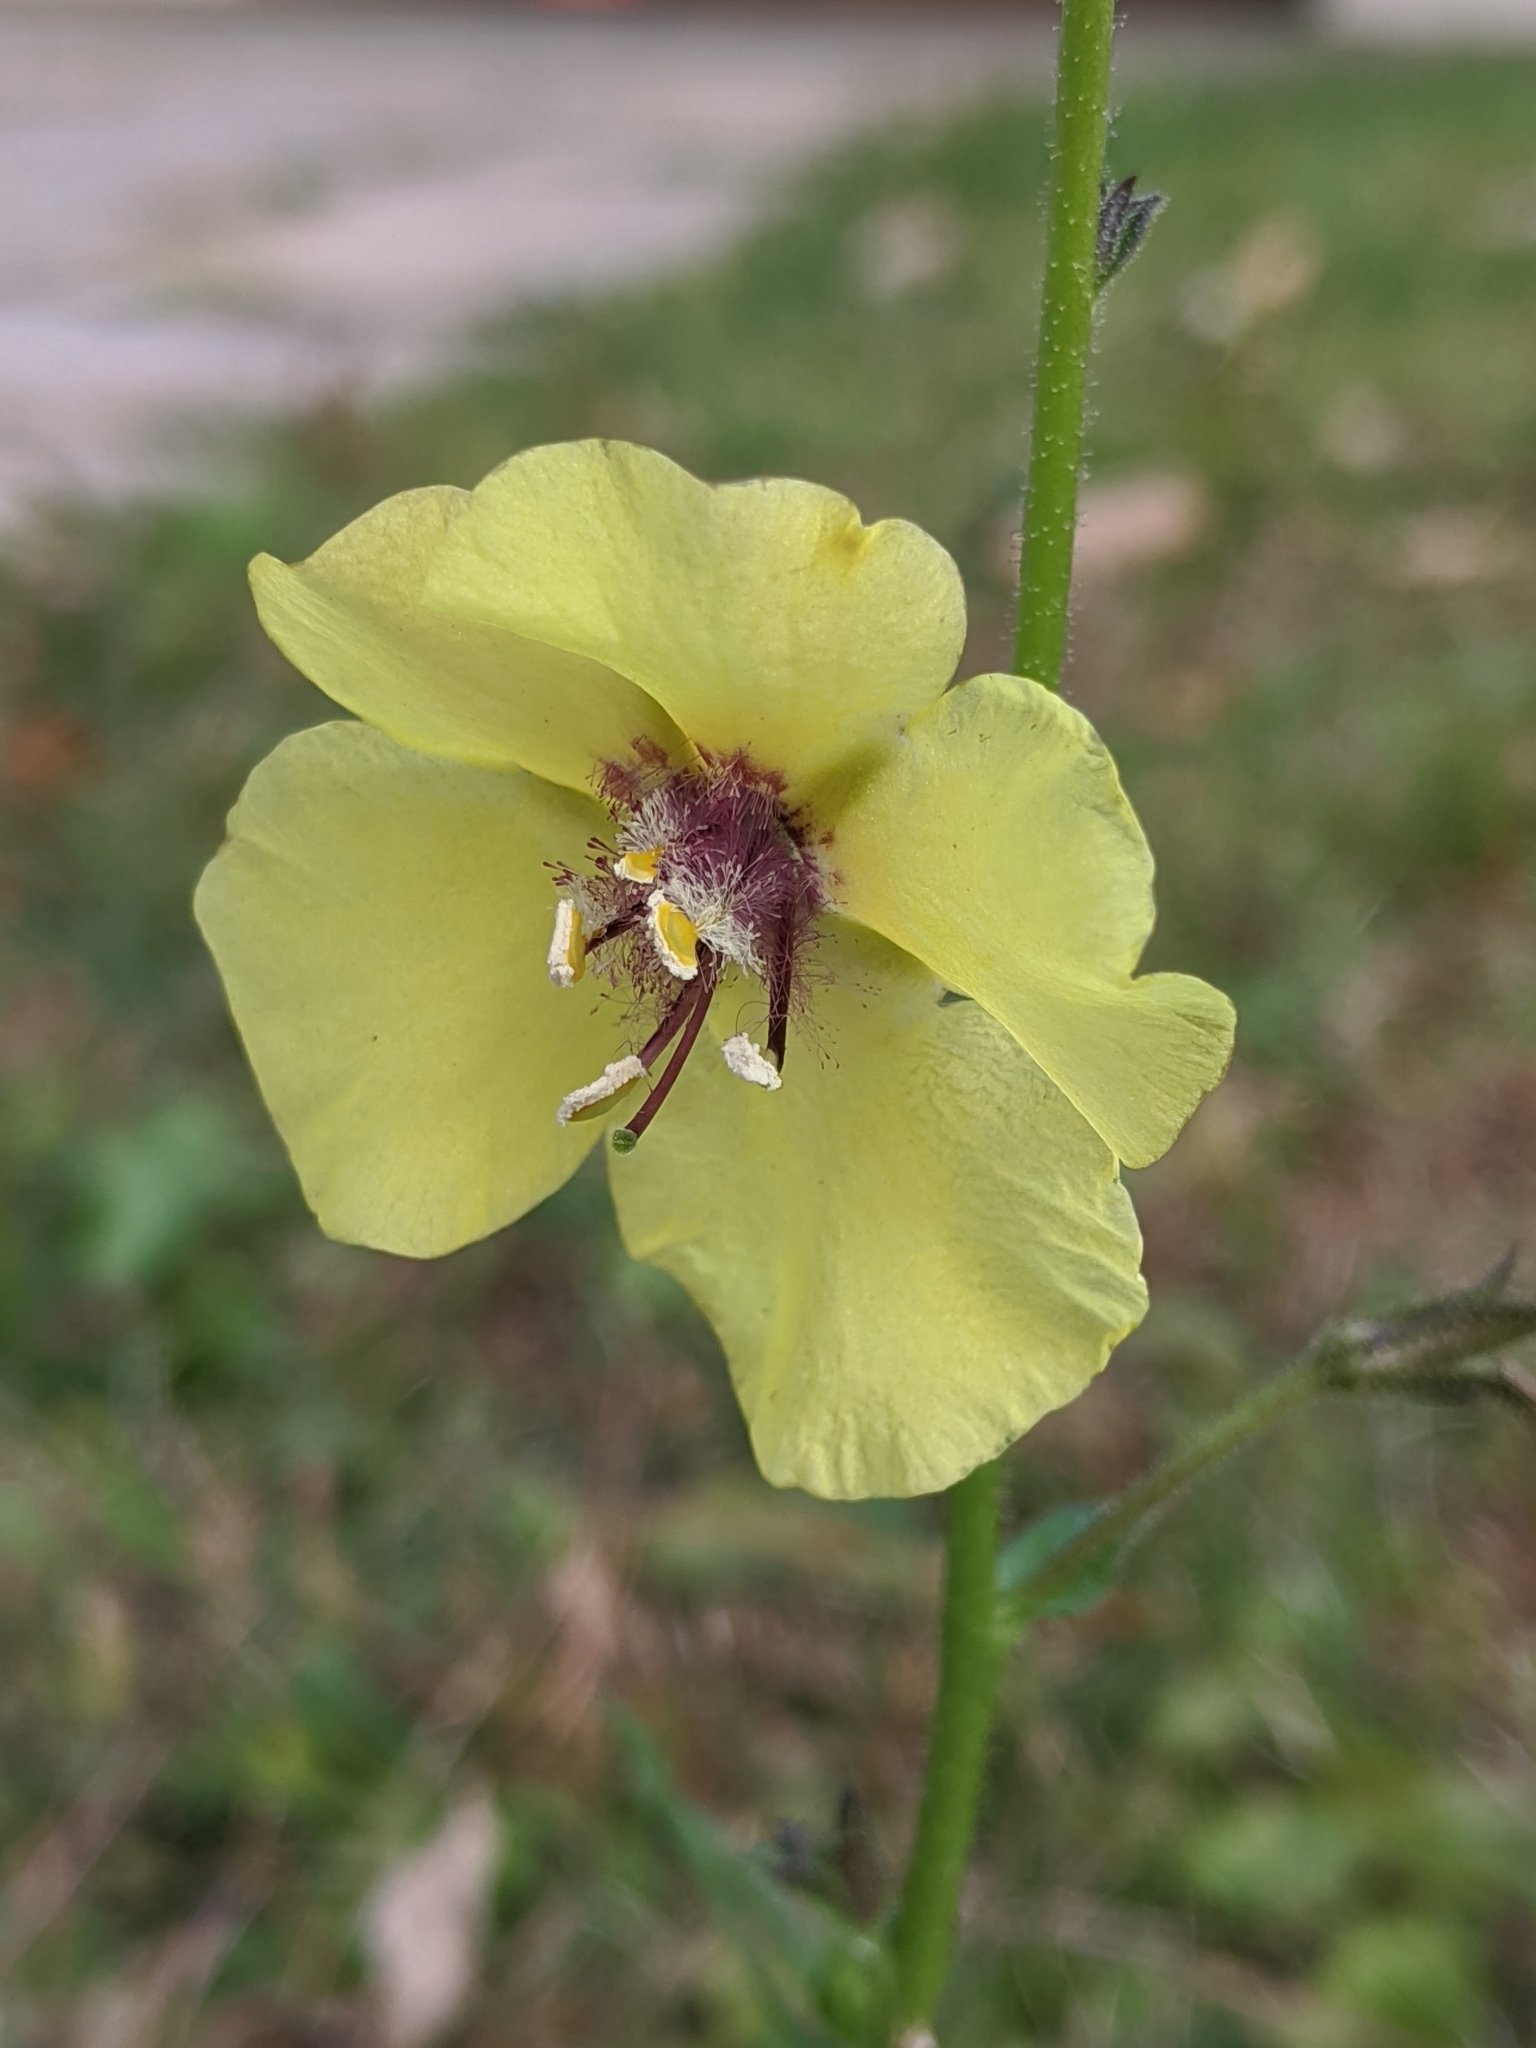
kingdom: Plantae
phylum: Tracheophyta
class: Magnoliopsida
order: Lamiales
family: Scrophulariaceae
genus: Verbascum
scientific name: Verbascum blattaria
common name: Moth mullein
